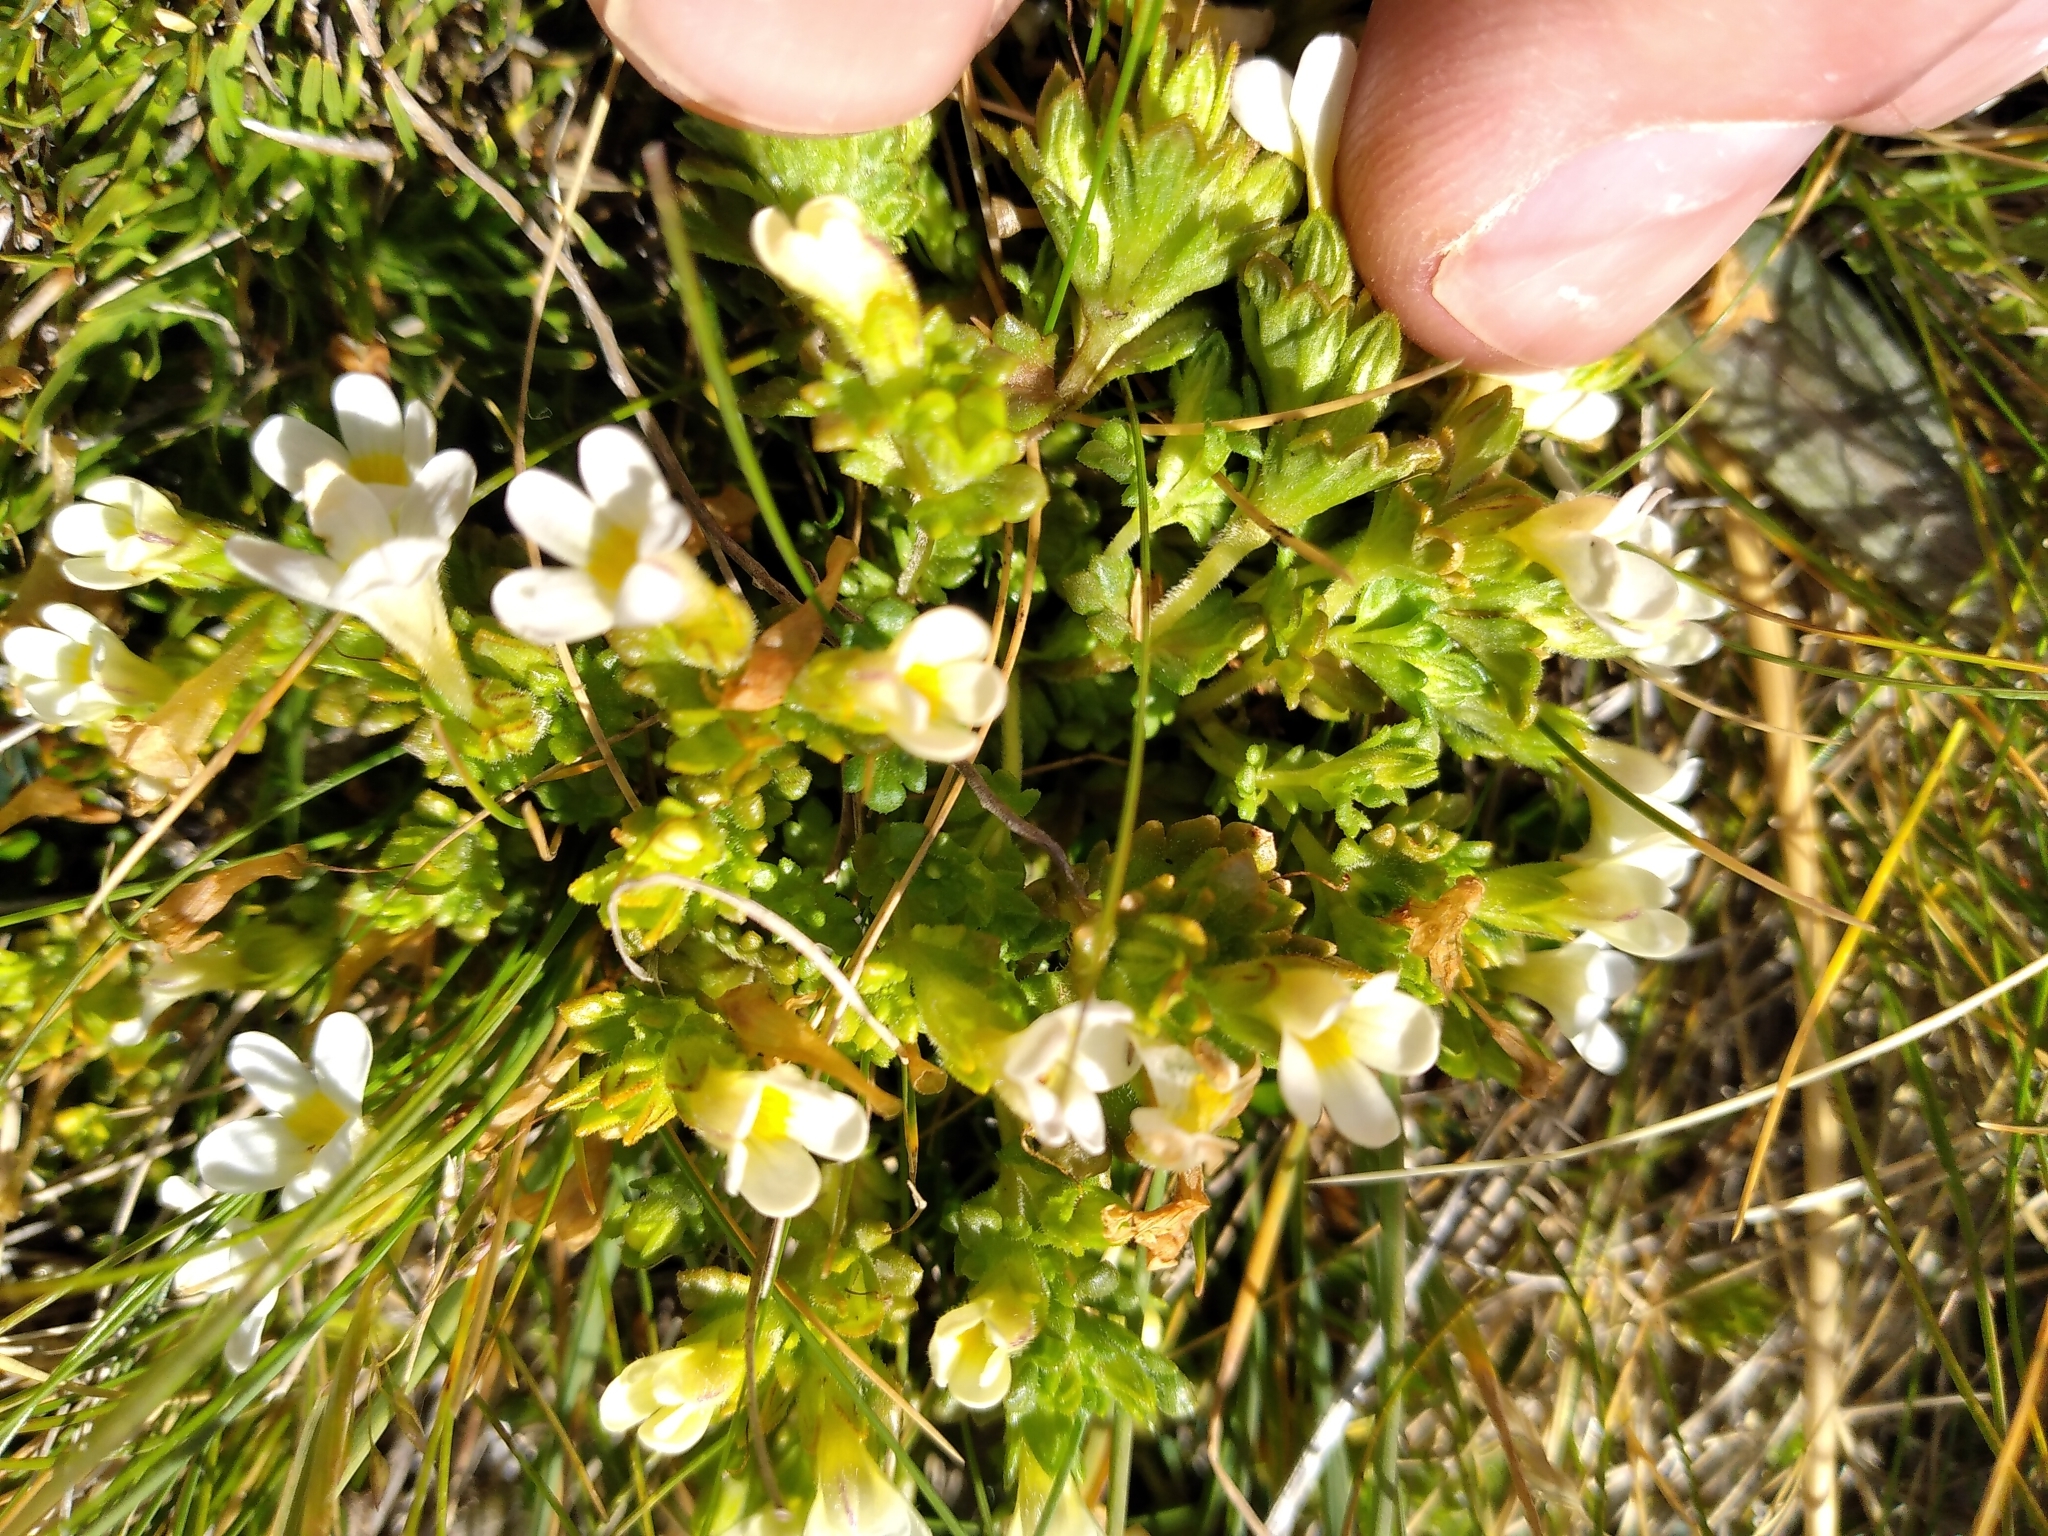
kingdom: Plantae
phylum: Tracheophyta
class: Magnoliopsida
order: Lamiales
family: Orobanchaceae
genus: Euphrasia
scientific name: Euphrasia zelandica
